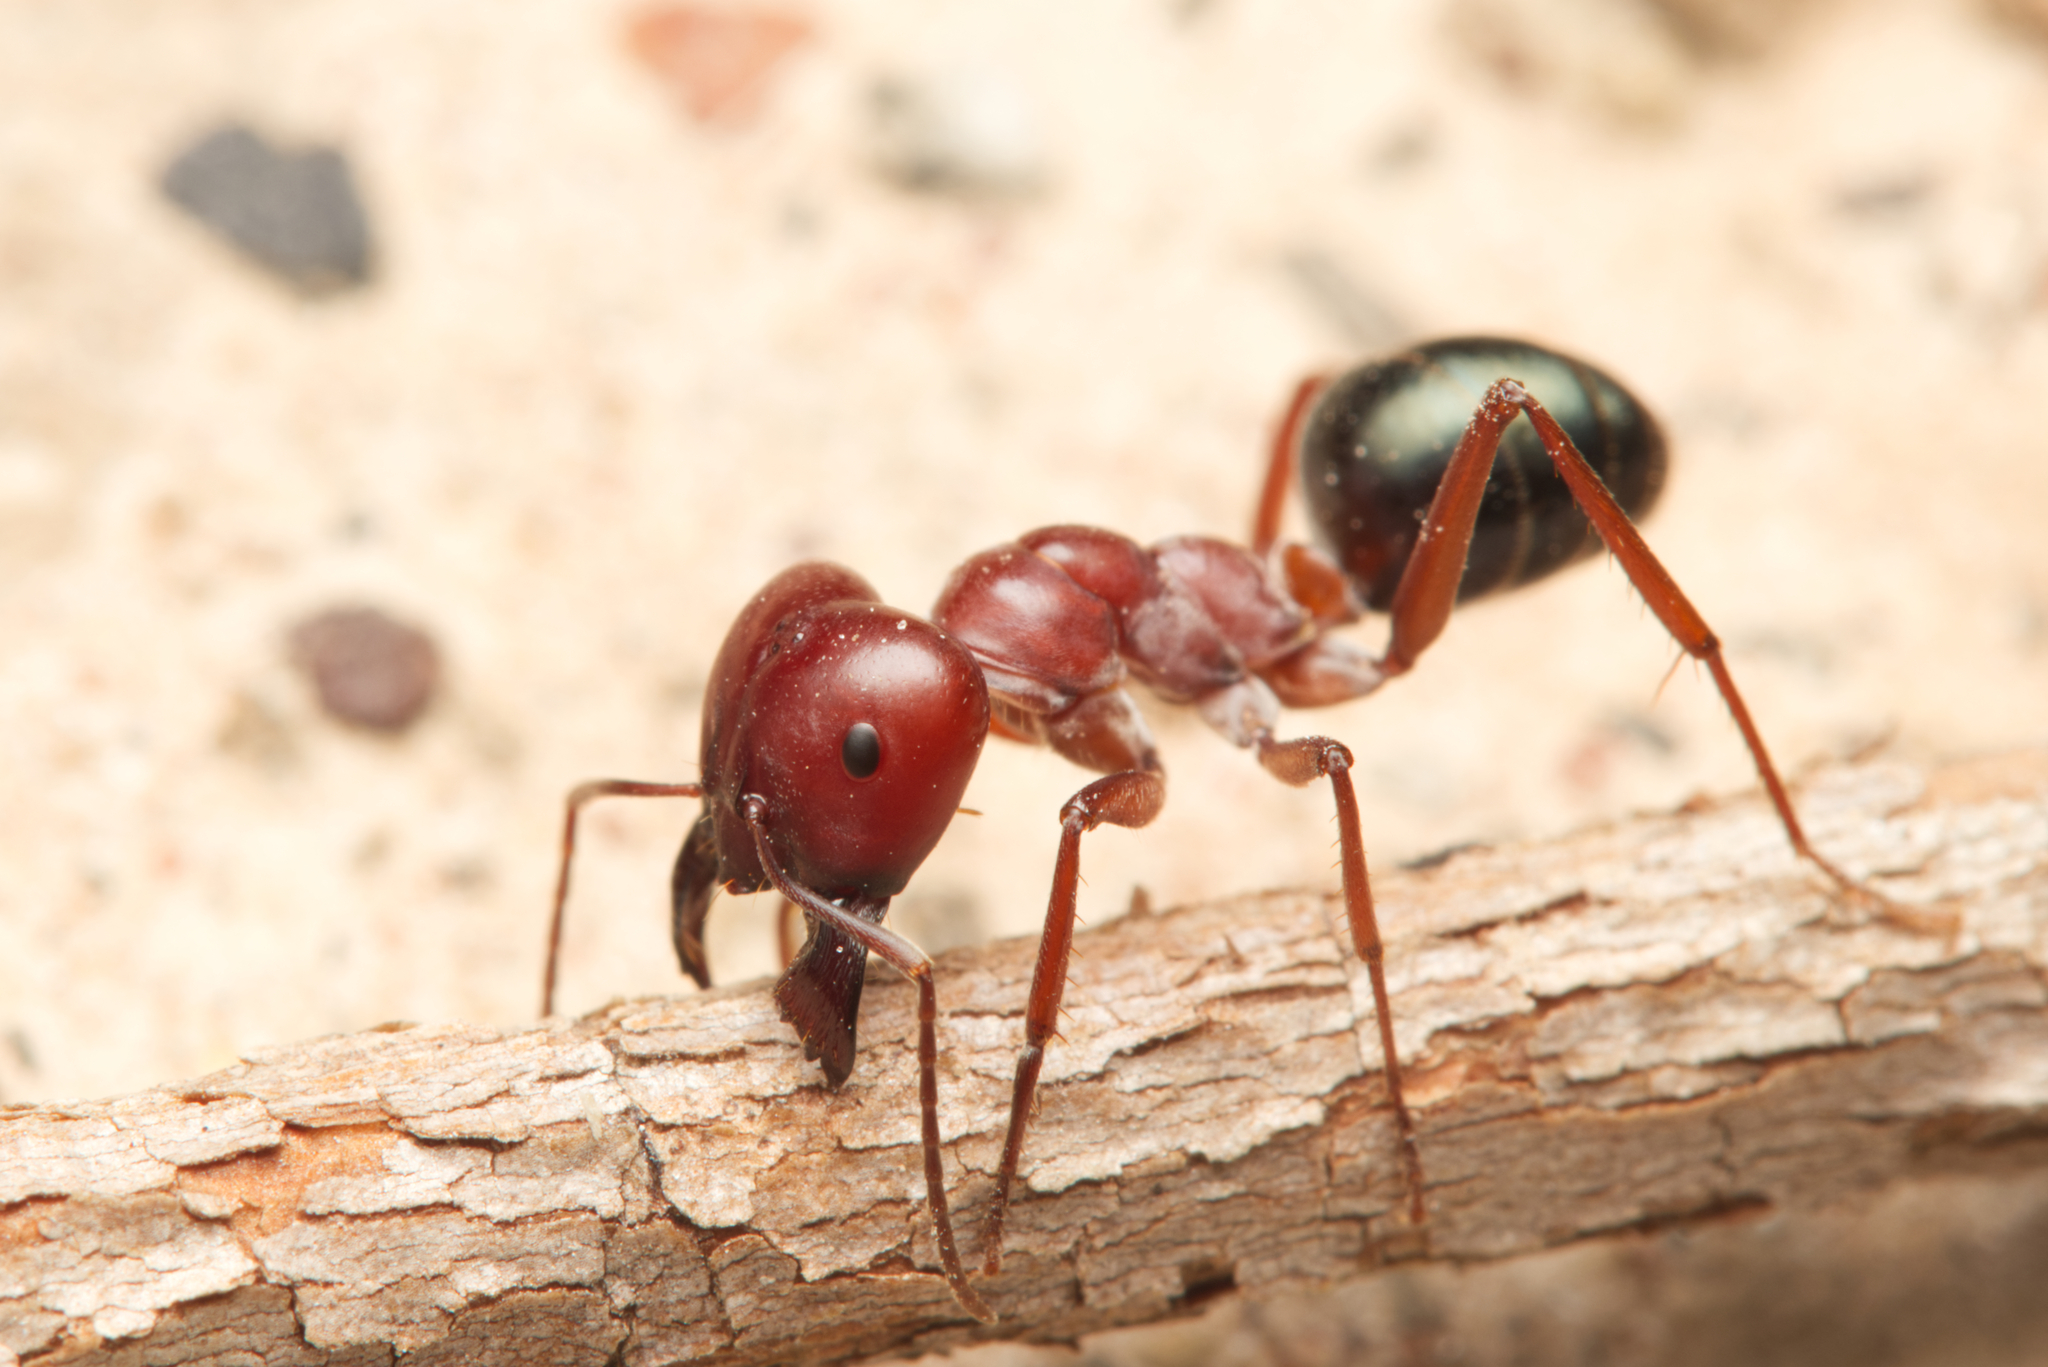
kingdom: Animalia
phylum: Arthropoda
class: Insecta
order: Hymenoptera
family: Formicidae
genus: Melophorus
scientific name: Melophorus rufoniger
